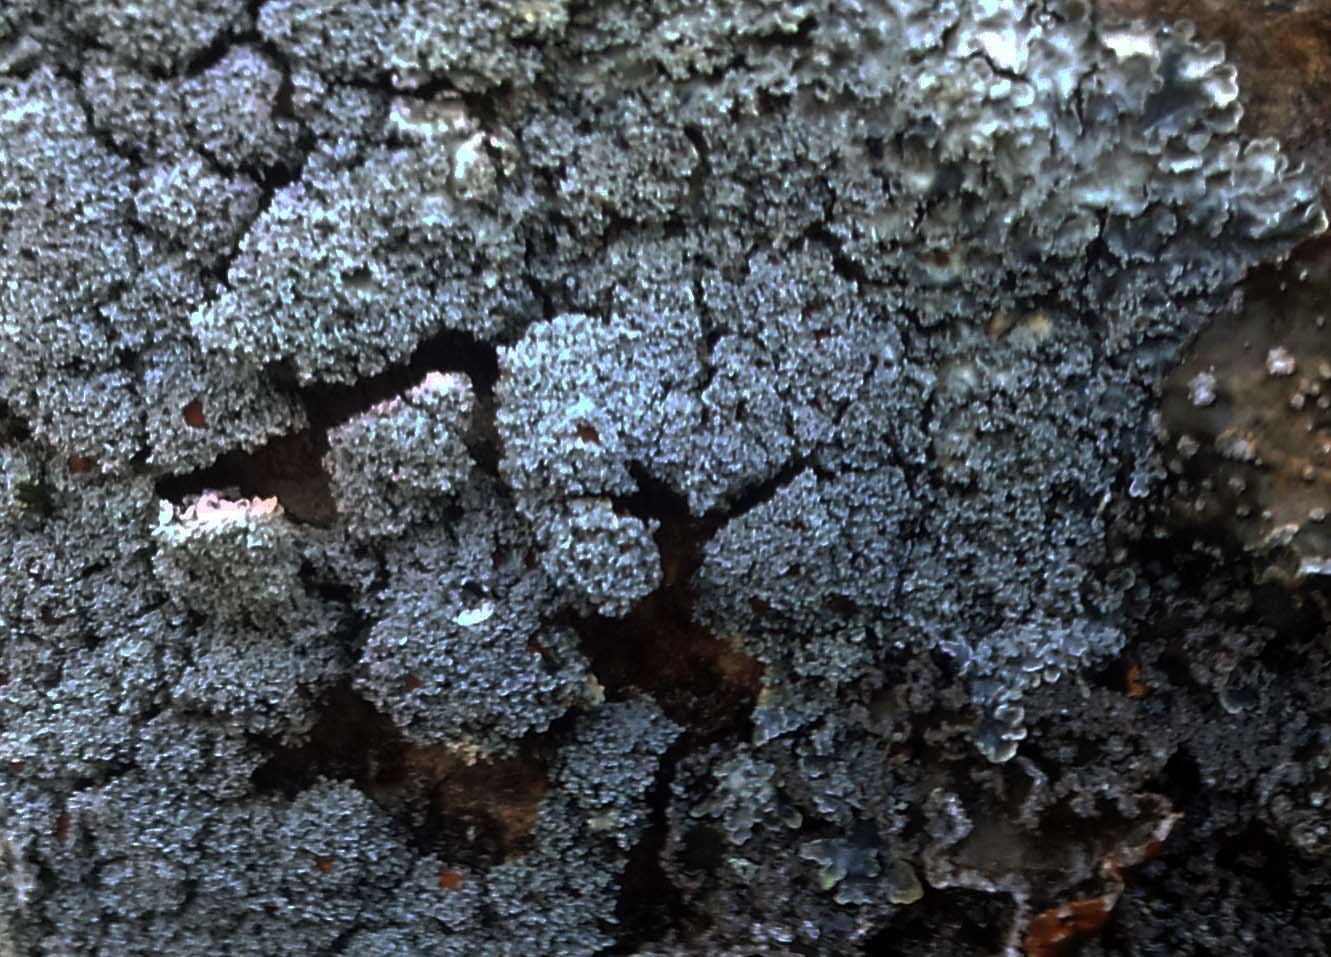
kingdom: Fungi
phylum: Ascomycota
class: Lecanoromycetes
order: Peltigerales
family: Pannariaceae
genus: Pannaria
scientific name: Pannaria elixii
